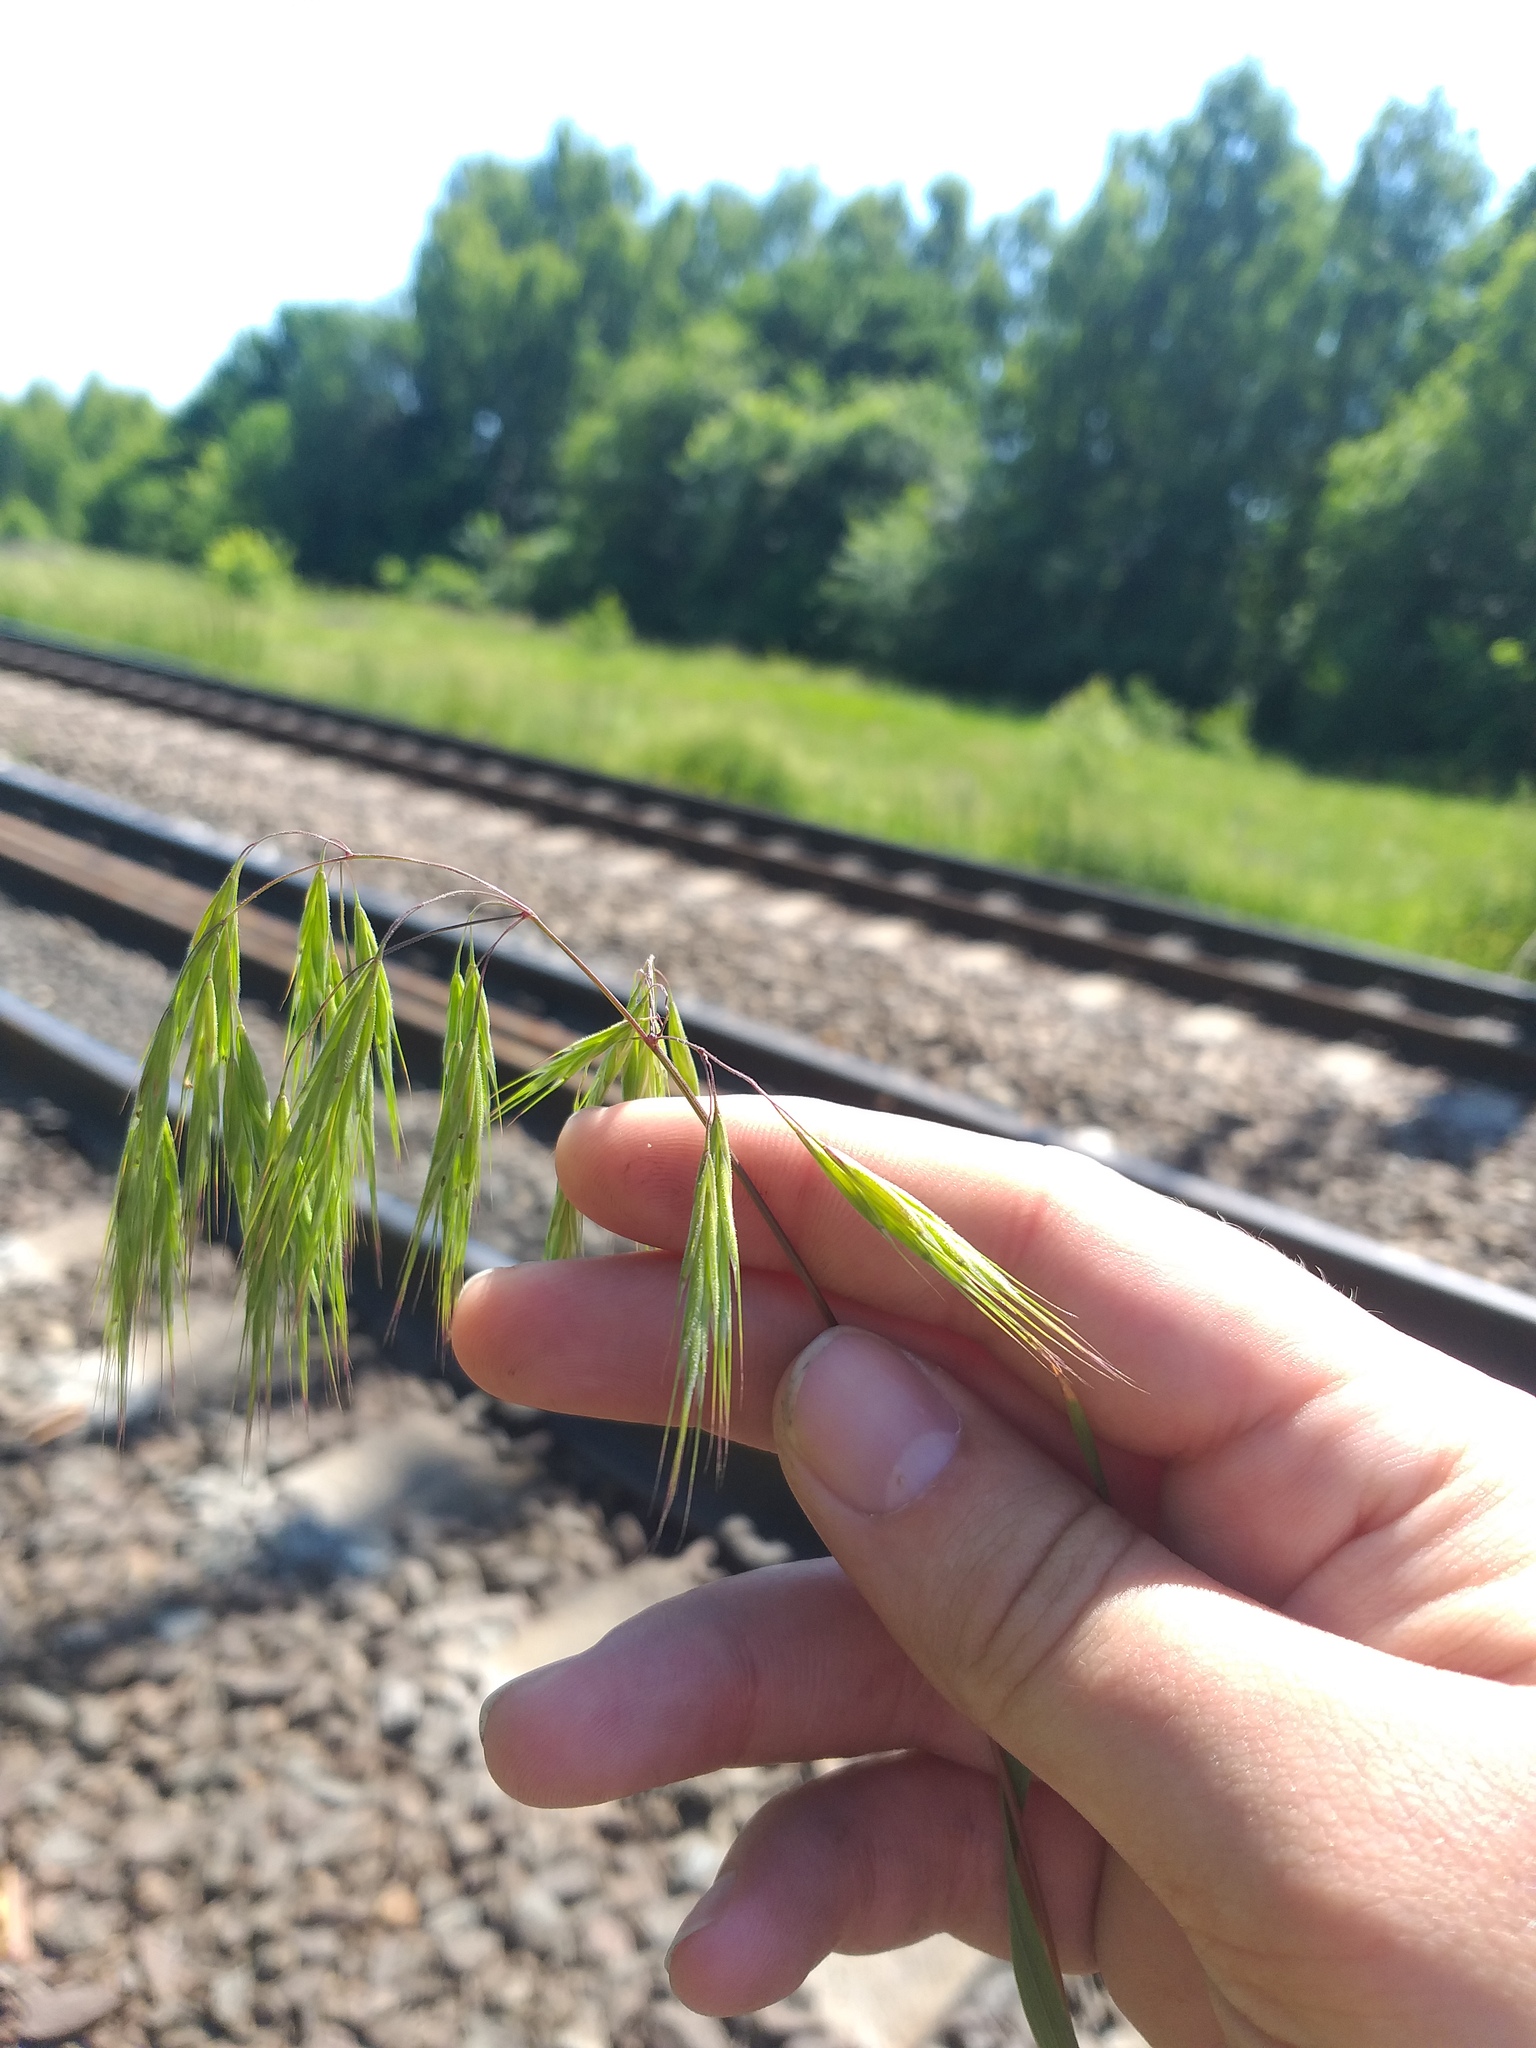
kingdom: Plantae
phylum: Tracheophyta
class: Liliopsida
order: Poales
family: Poaceae
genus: Bromus
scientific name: Bromus tectorum
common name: Cheatgrass
